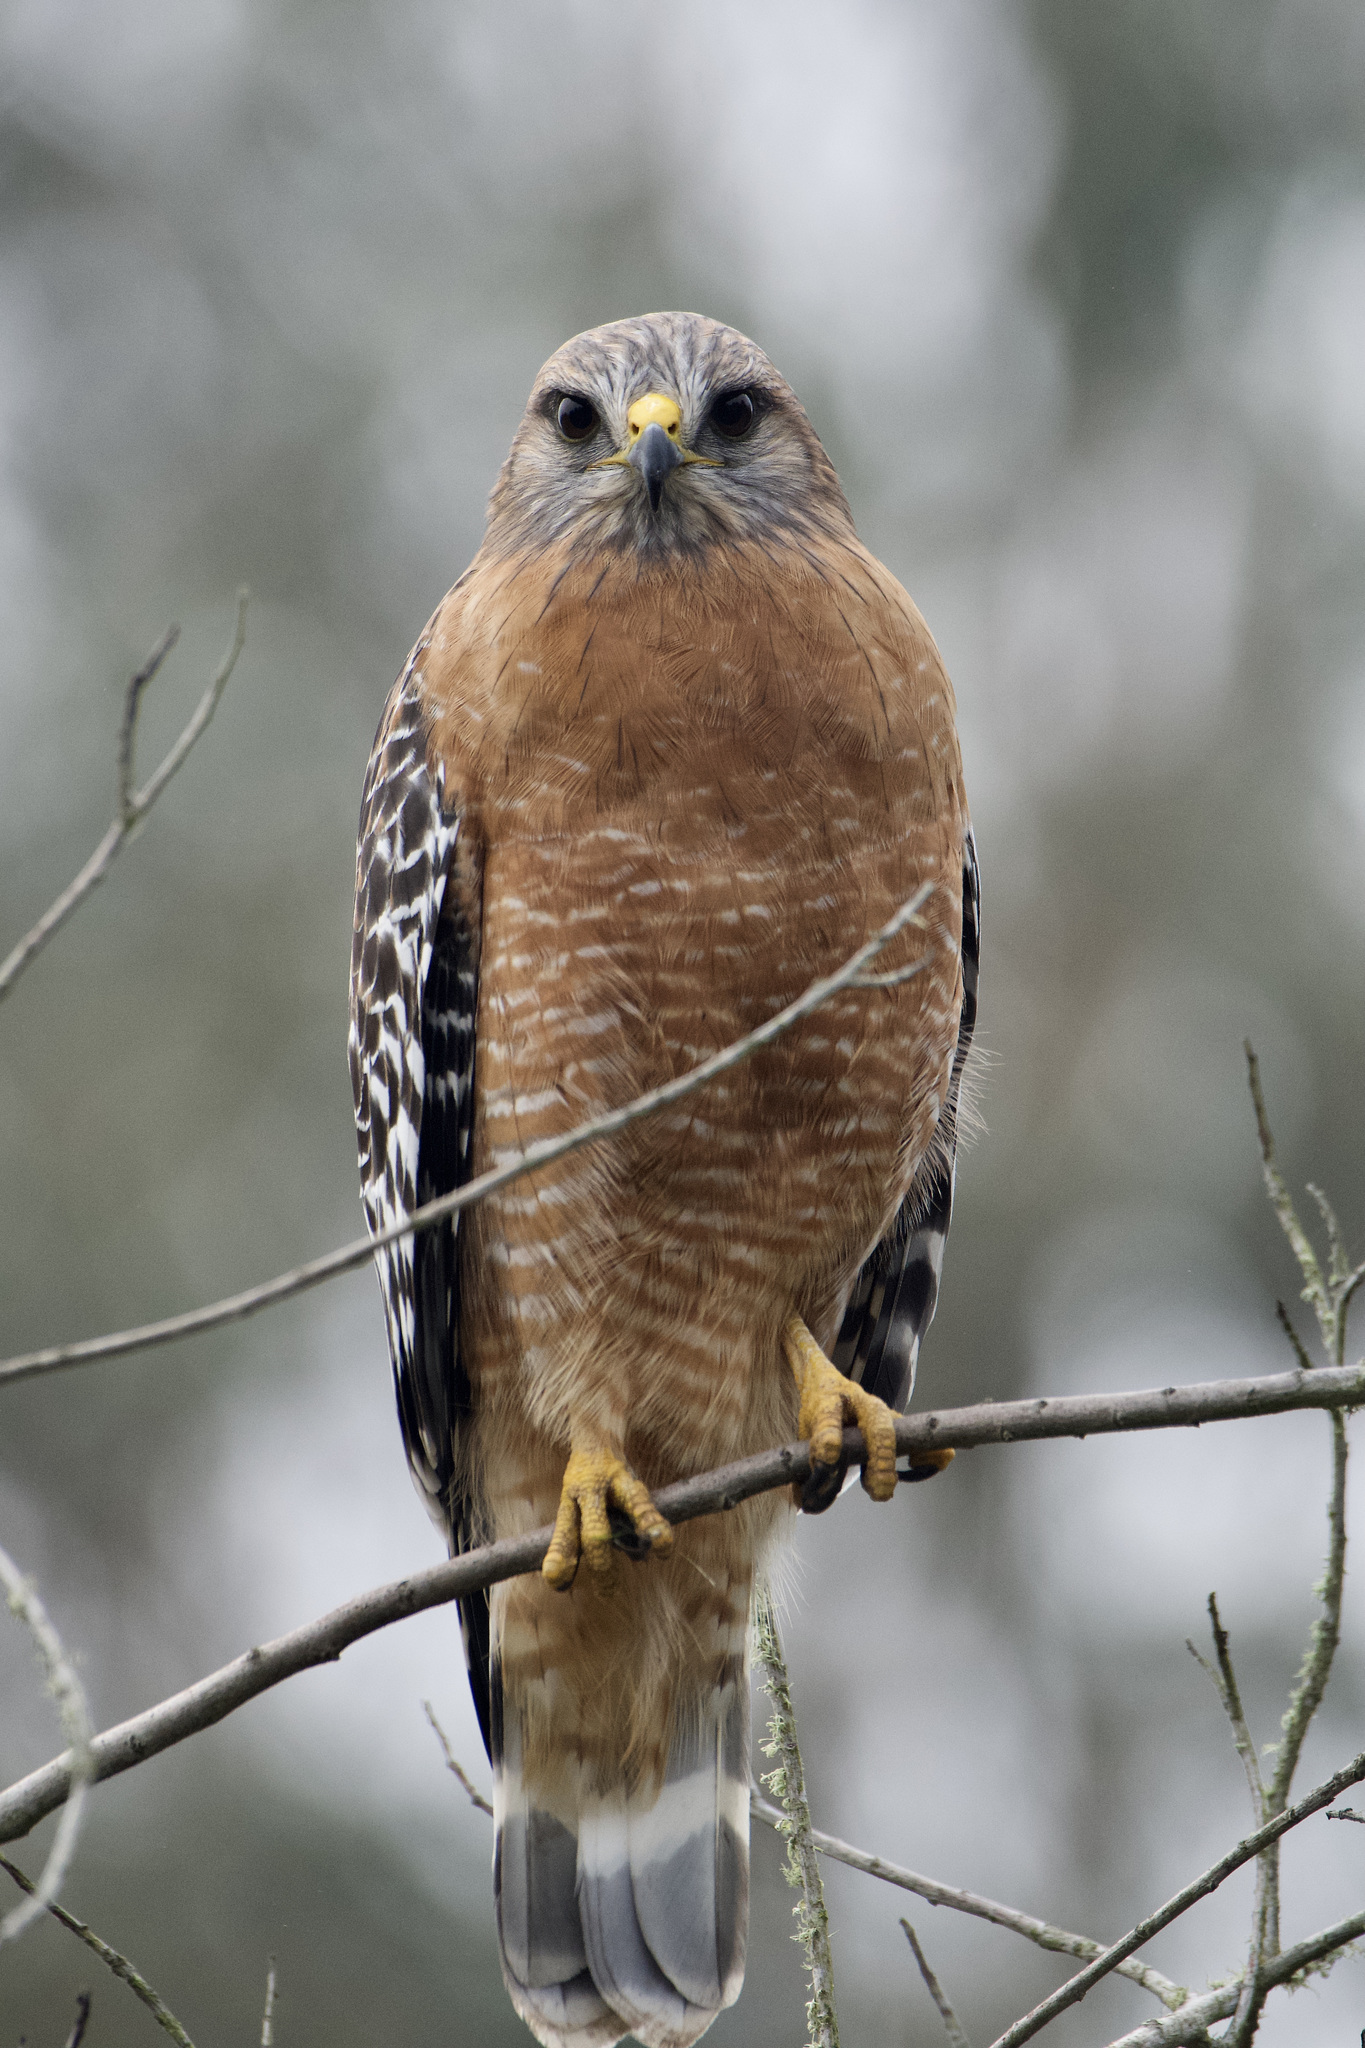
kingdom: Animalia
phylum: Chordata
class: Aves
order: Accipitriformes
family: Accipitridae
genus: Buteo
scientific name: Buteo lineatus
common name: Red-shouldered hawk
